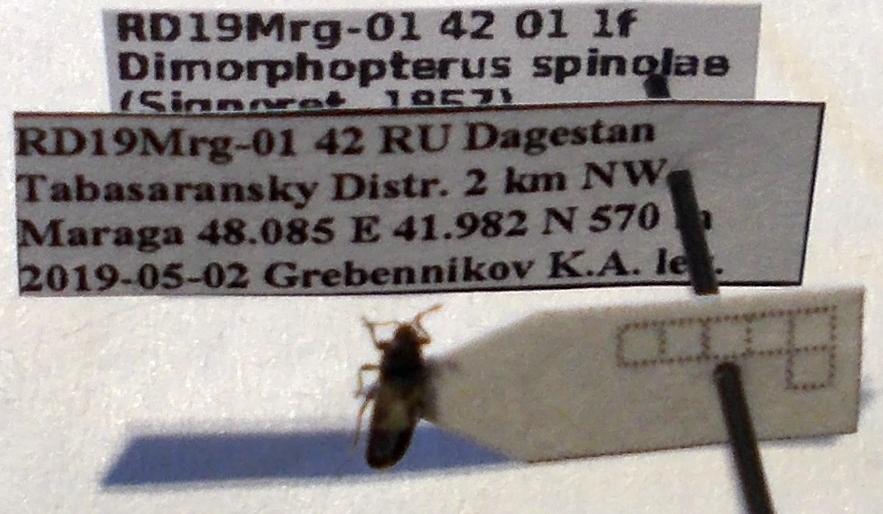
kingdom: Animalia
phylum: Arthropoda
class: Insecta
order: Hemiptera
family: Blissidae
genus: Dimorphopterus
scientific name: Dimorphopterus spinolae
